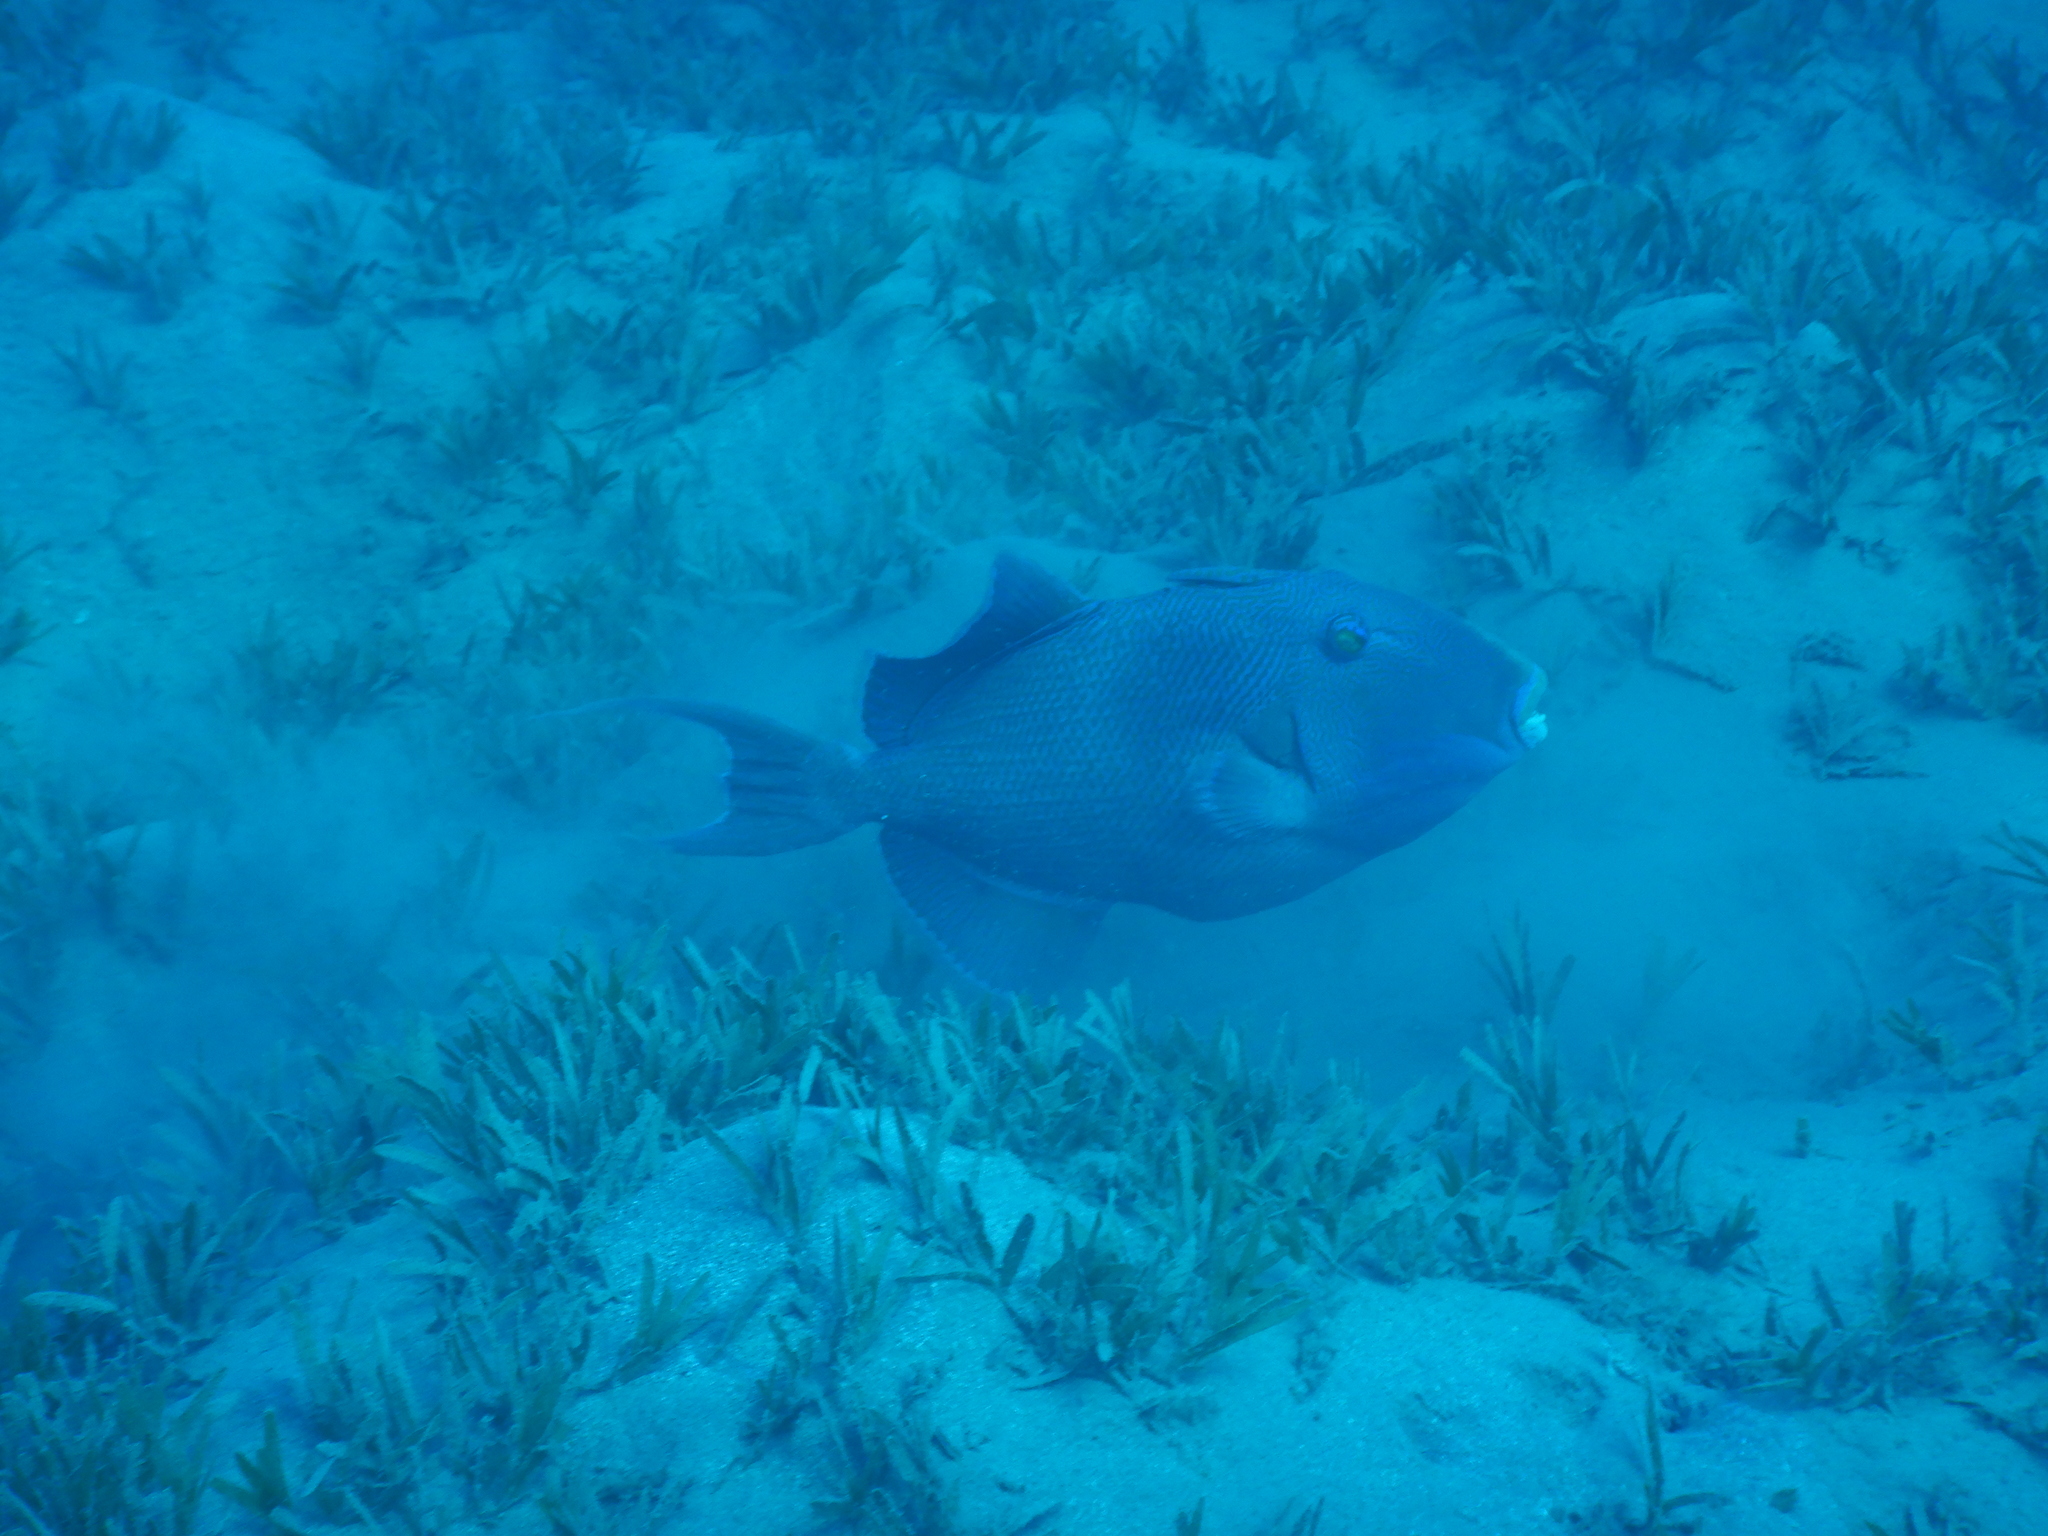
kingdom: Animalia
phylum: Chordata
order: Tetraodontiformes
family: Balistidae
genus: Pseudobalistes
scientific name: Pseudobalistes fuscus
